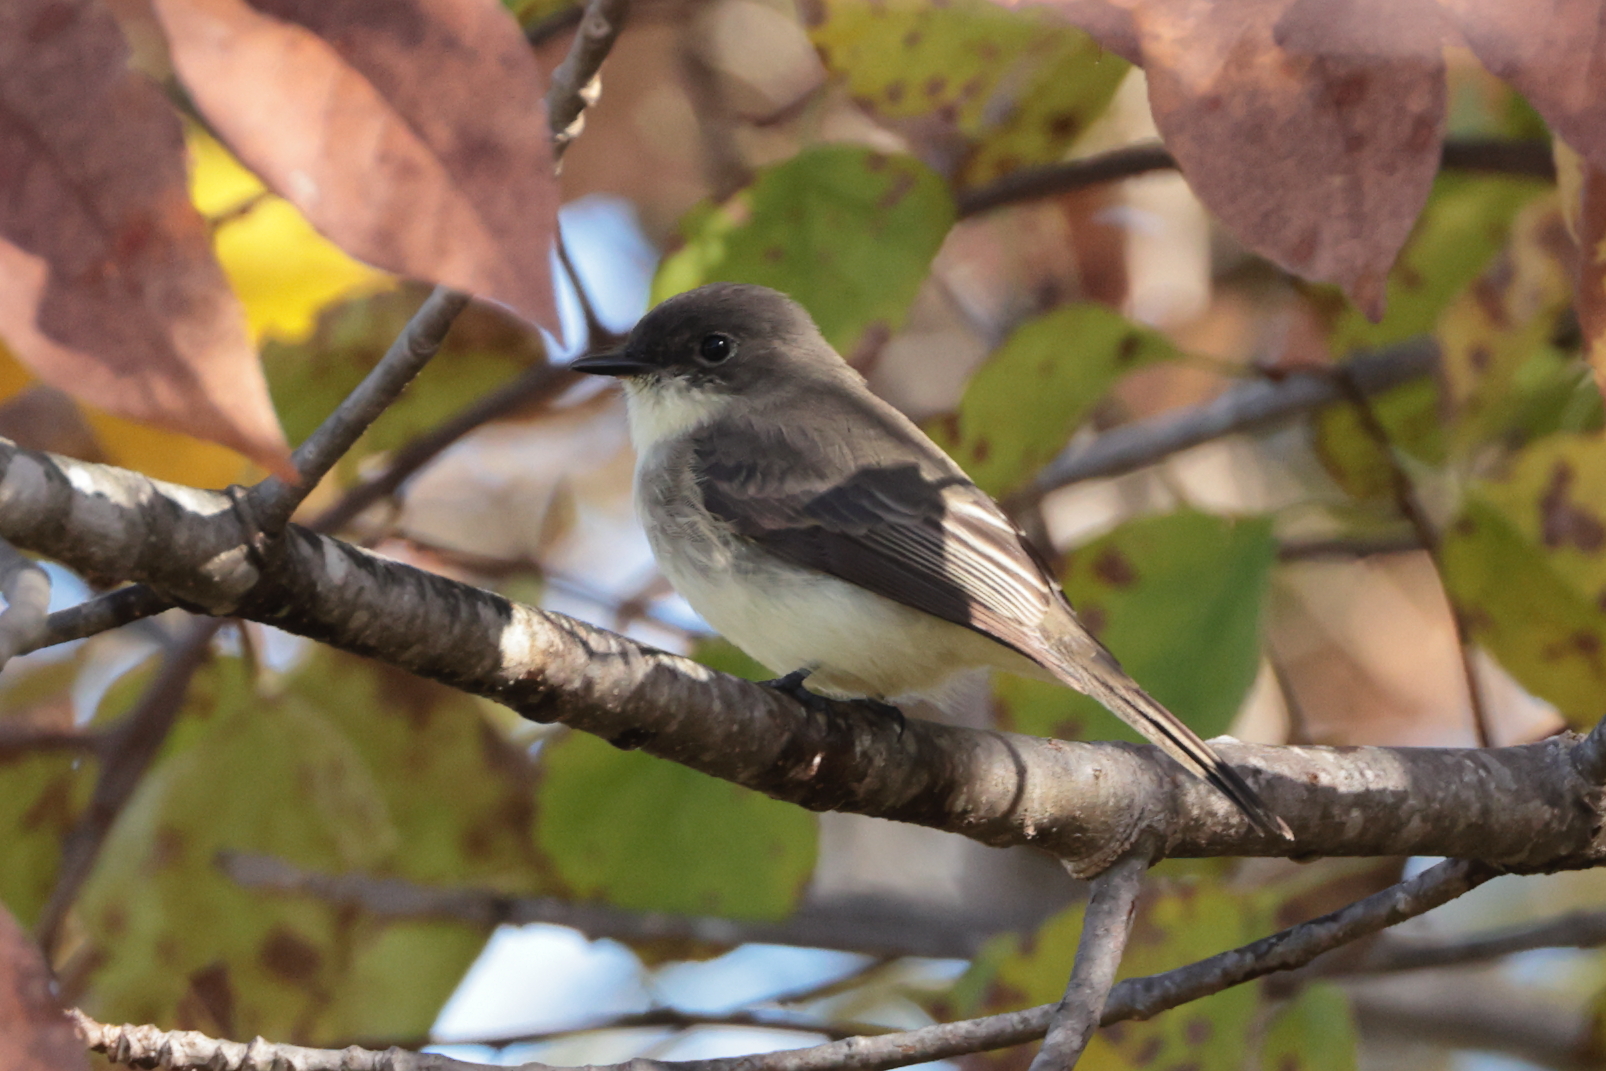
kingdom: Animalia
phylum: Chordata
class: Aves
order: Passeriformes
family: Tyrannidae
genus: Sayornis
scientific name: Sayornis phoebe
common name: Eastern phoebe
